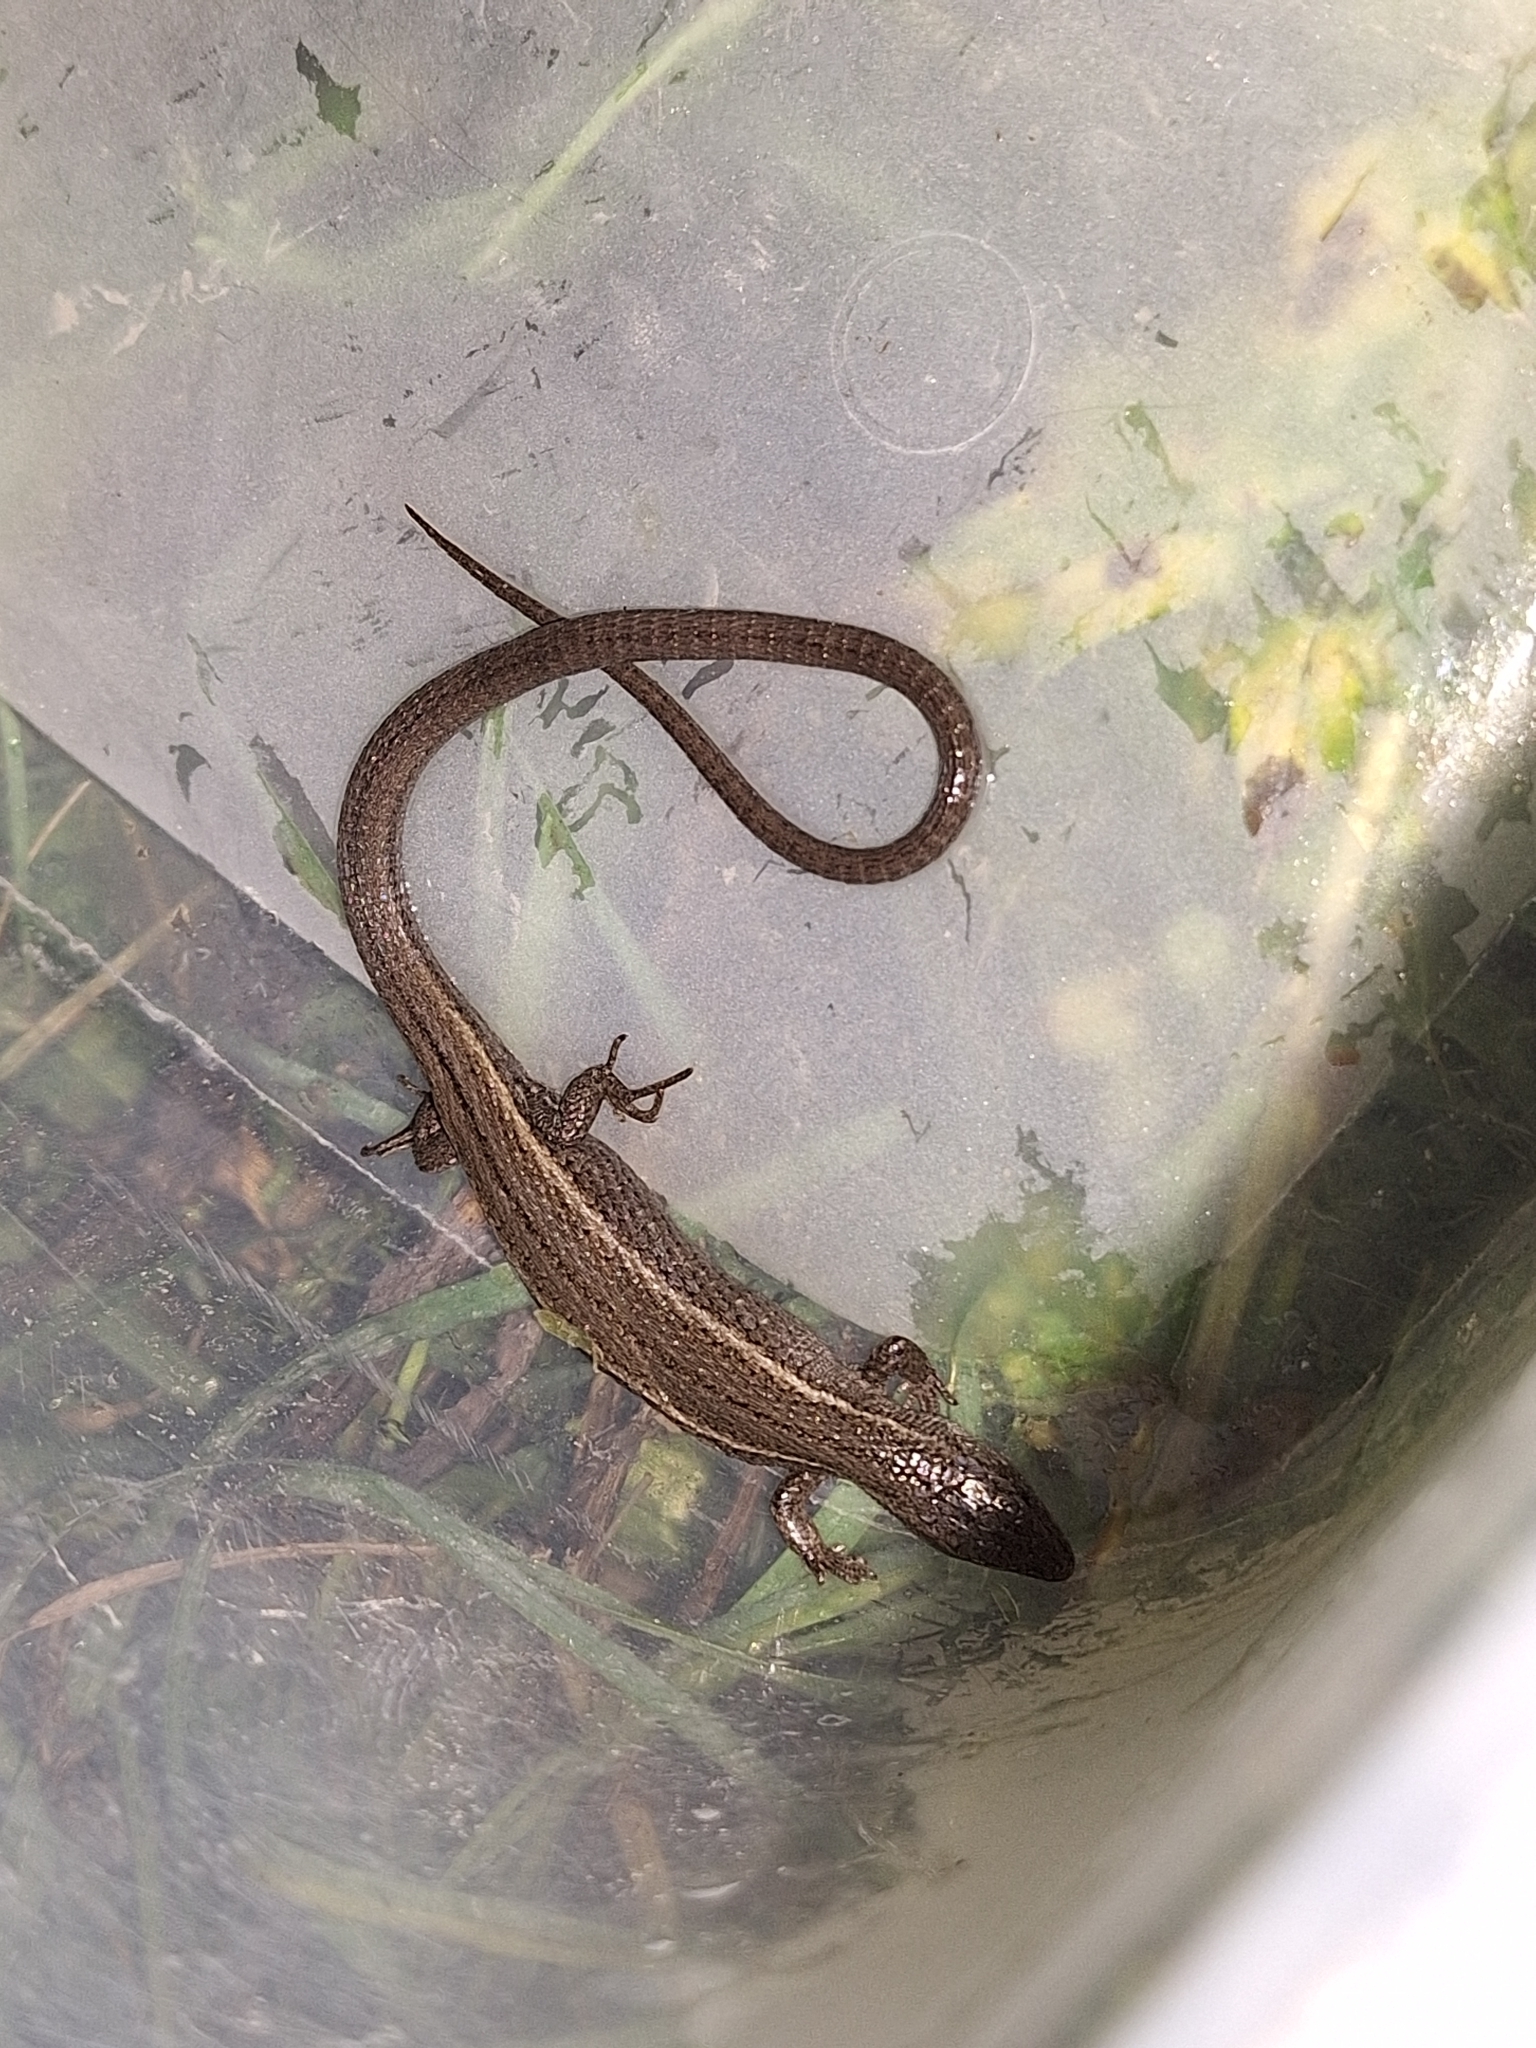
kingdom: Animalia
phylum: Chordata
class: Squamata
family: Gymnophthalmidae
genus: Cercosaura
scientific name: Cercosaura schreibersii
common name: Schreibers' many-fingered teiid
